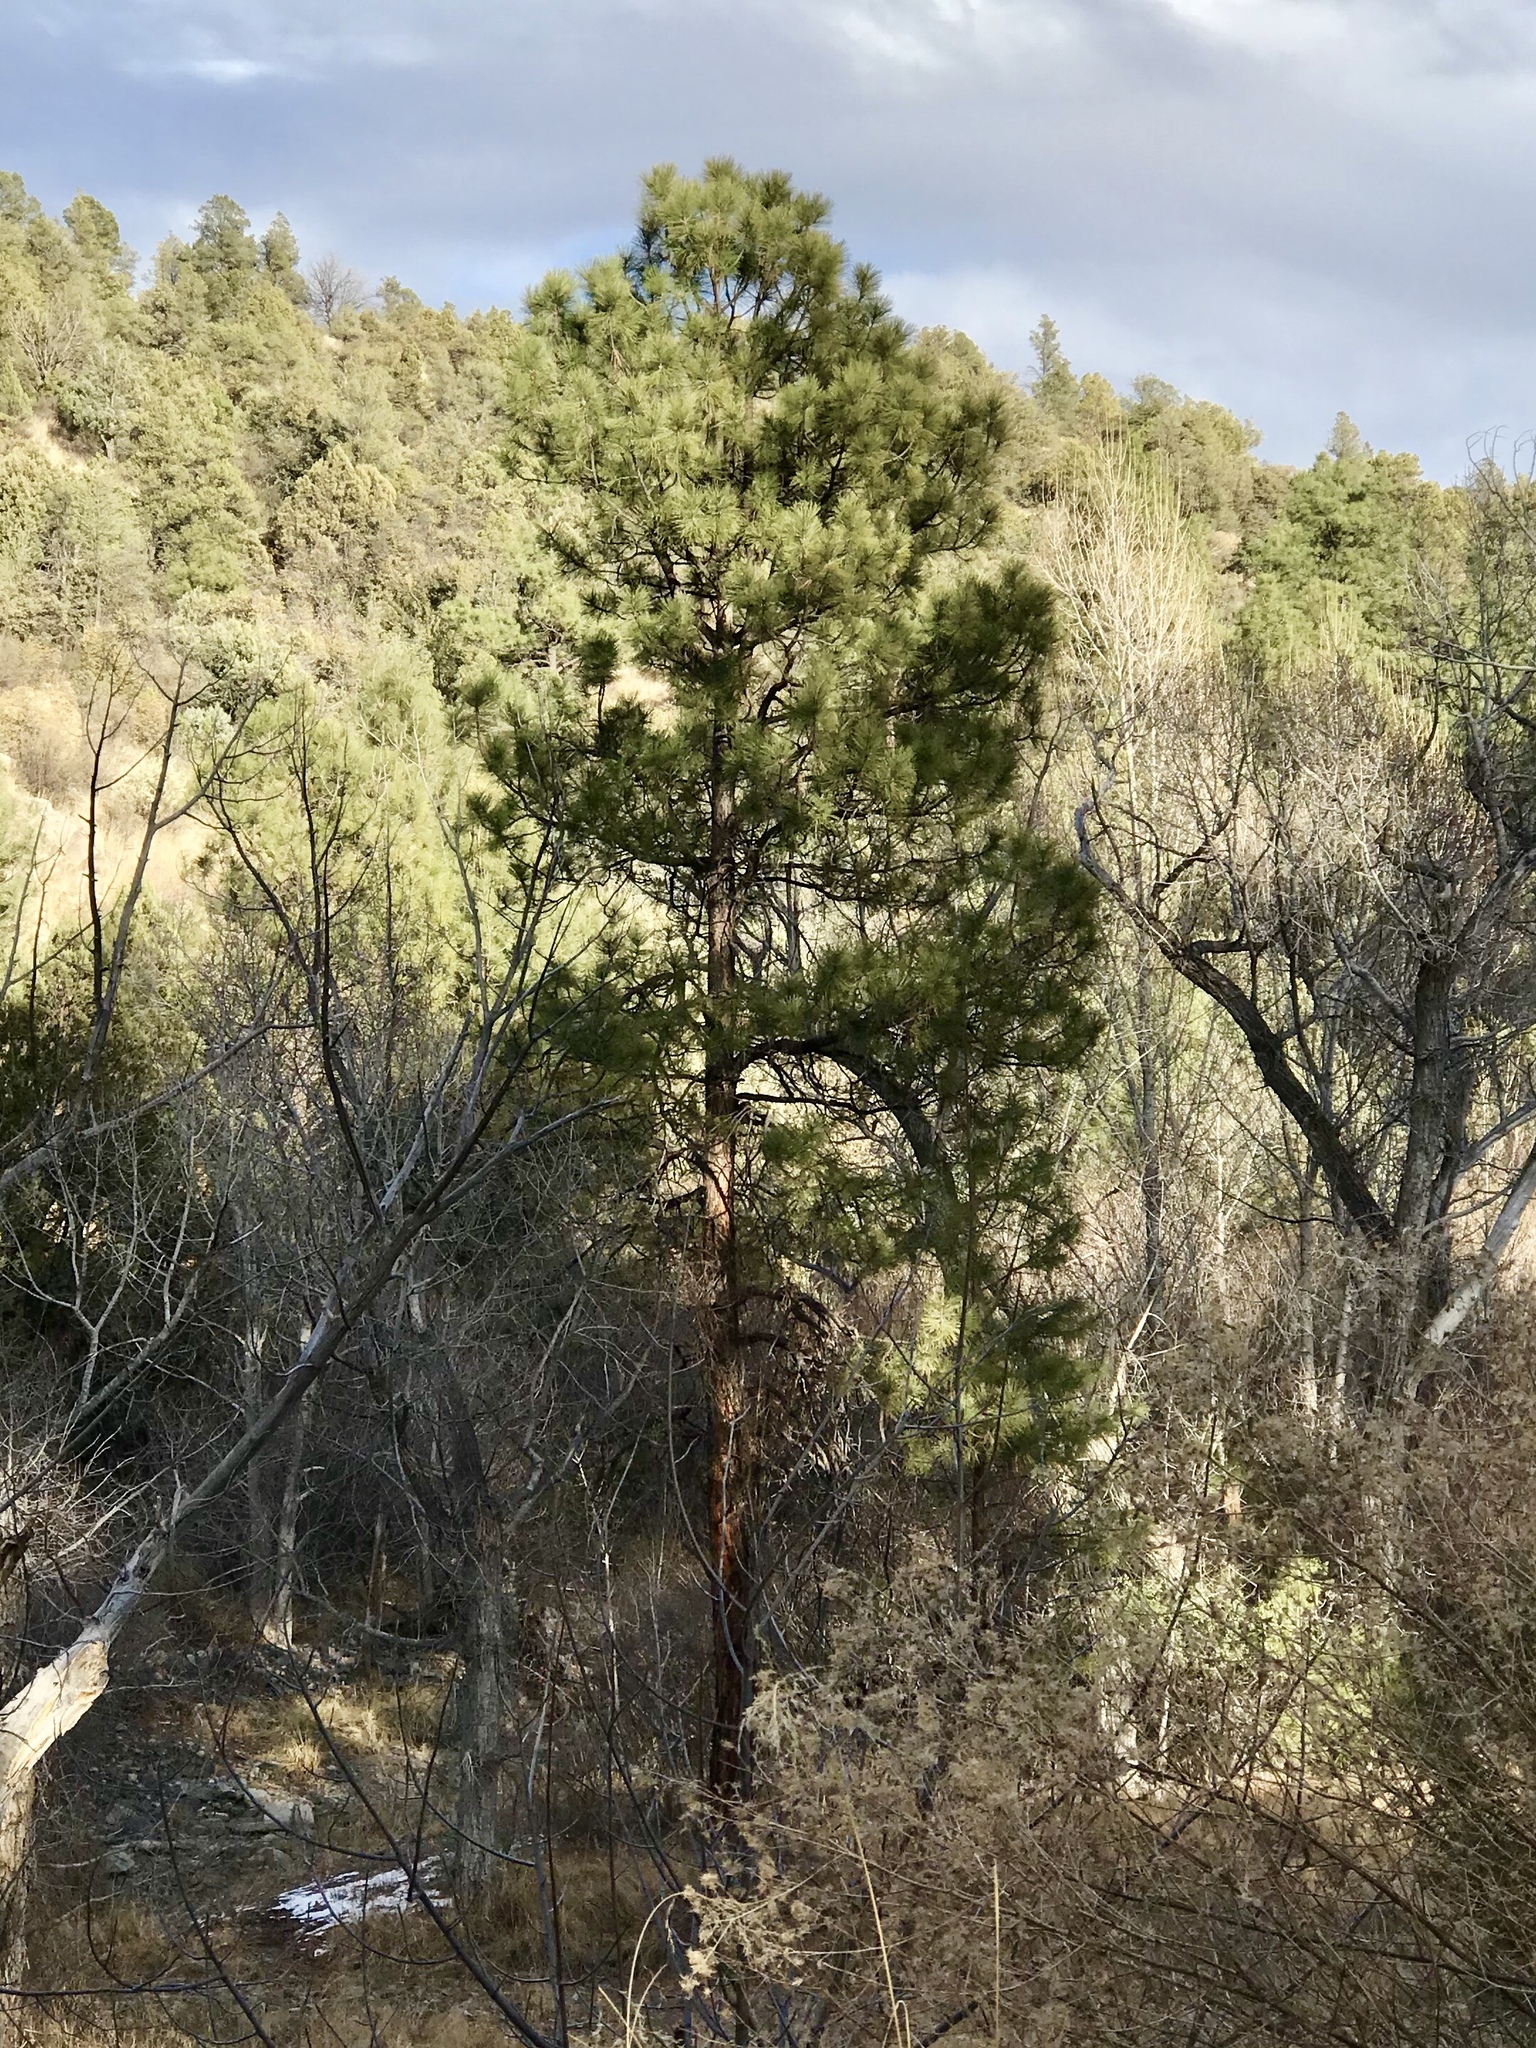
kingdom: Plantae
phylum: Tracheophyta
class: Pinopsida
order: Pinales
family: Pinaceae
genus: Pinus
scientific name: Pinus ponderosa
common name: Western yellow-pine
